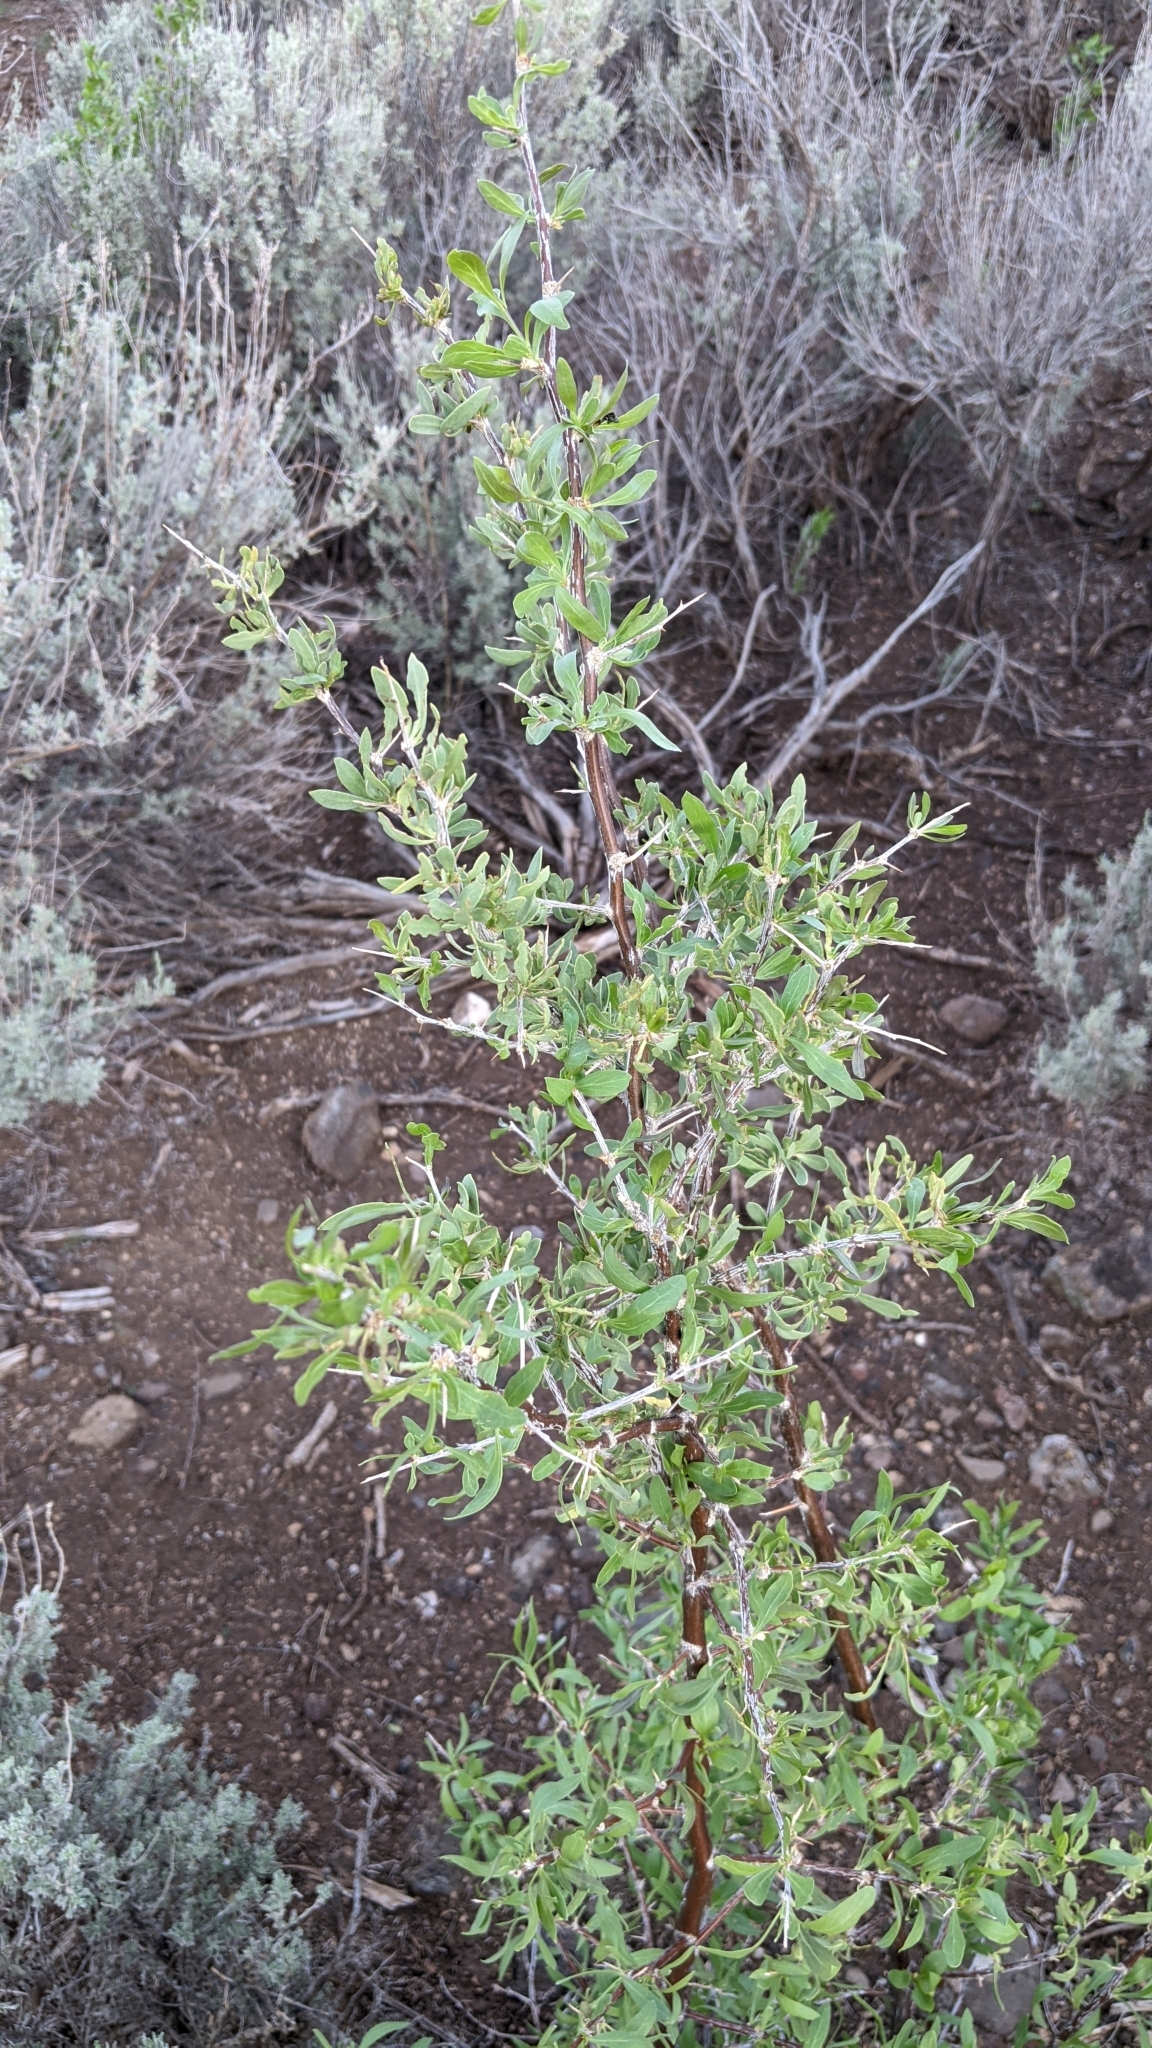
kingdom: Plantae
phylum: Tracheophyta
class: Magnoliopsida
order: Solanales
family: Solanaceae
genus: Lycium
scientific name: Lycium pallidum
